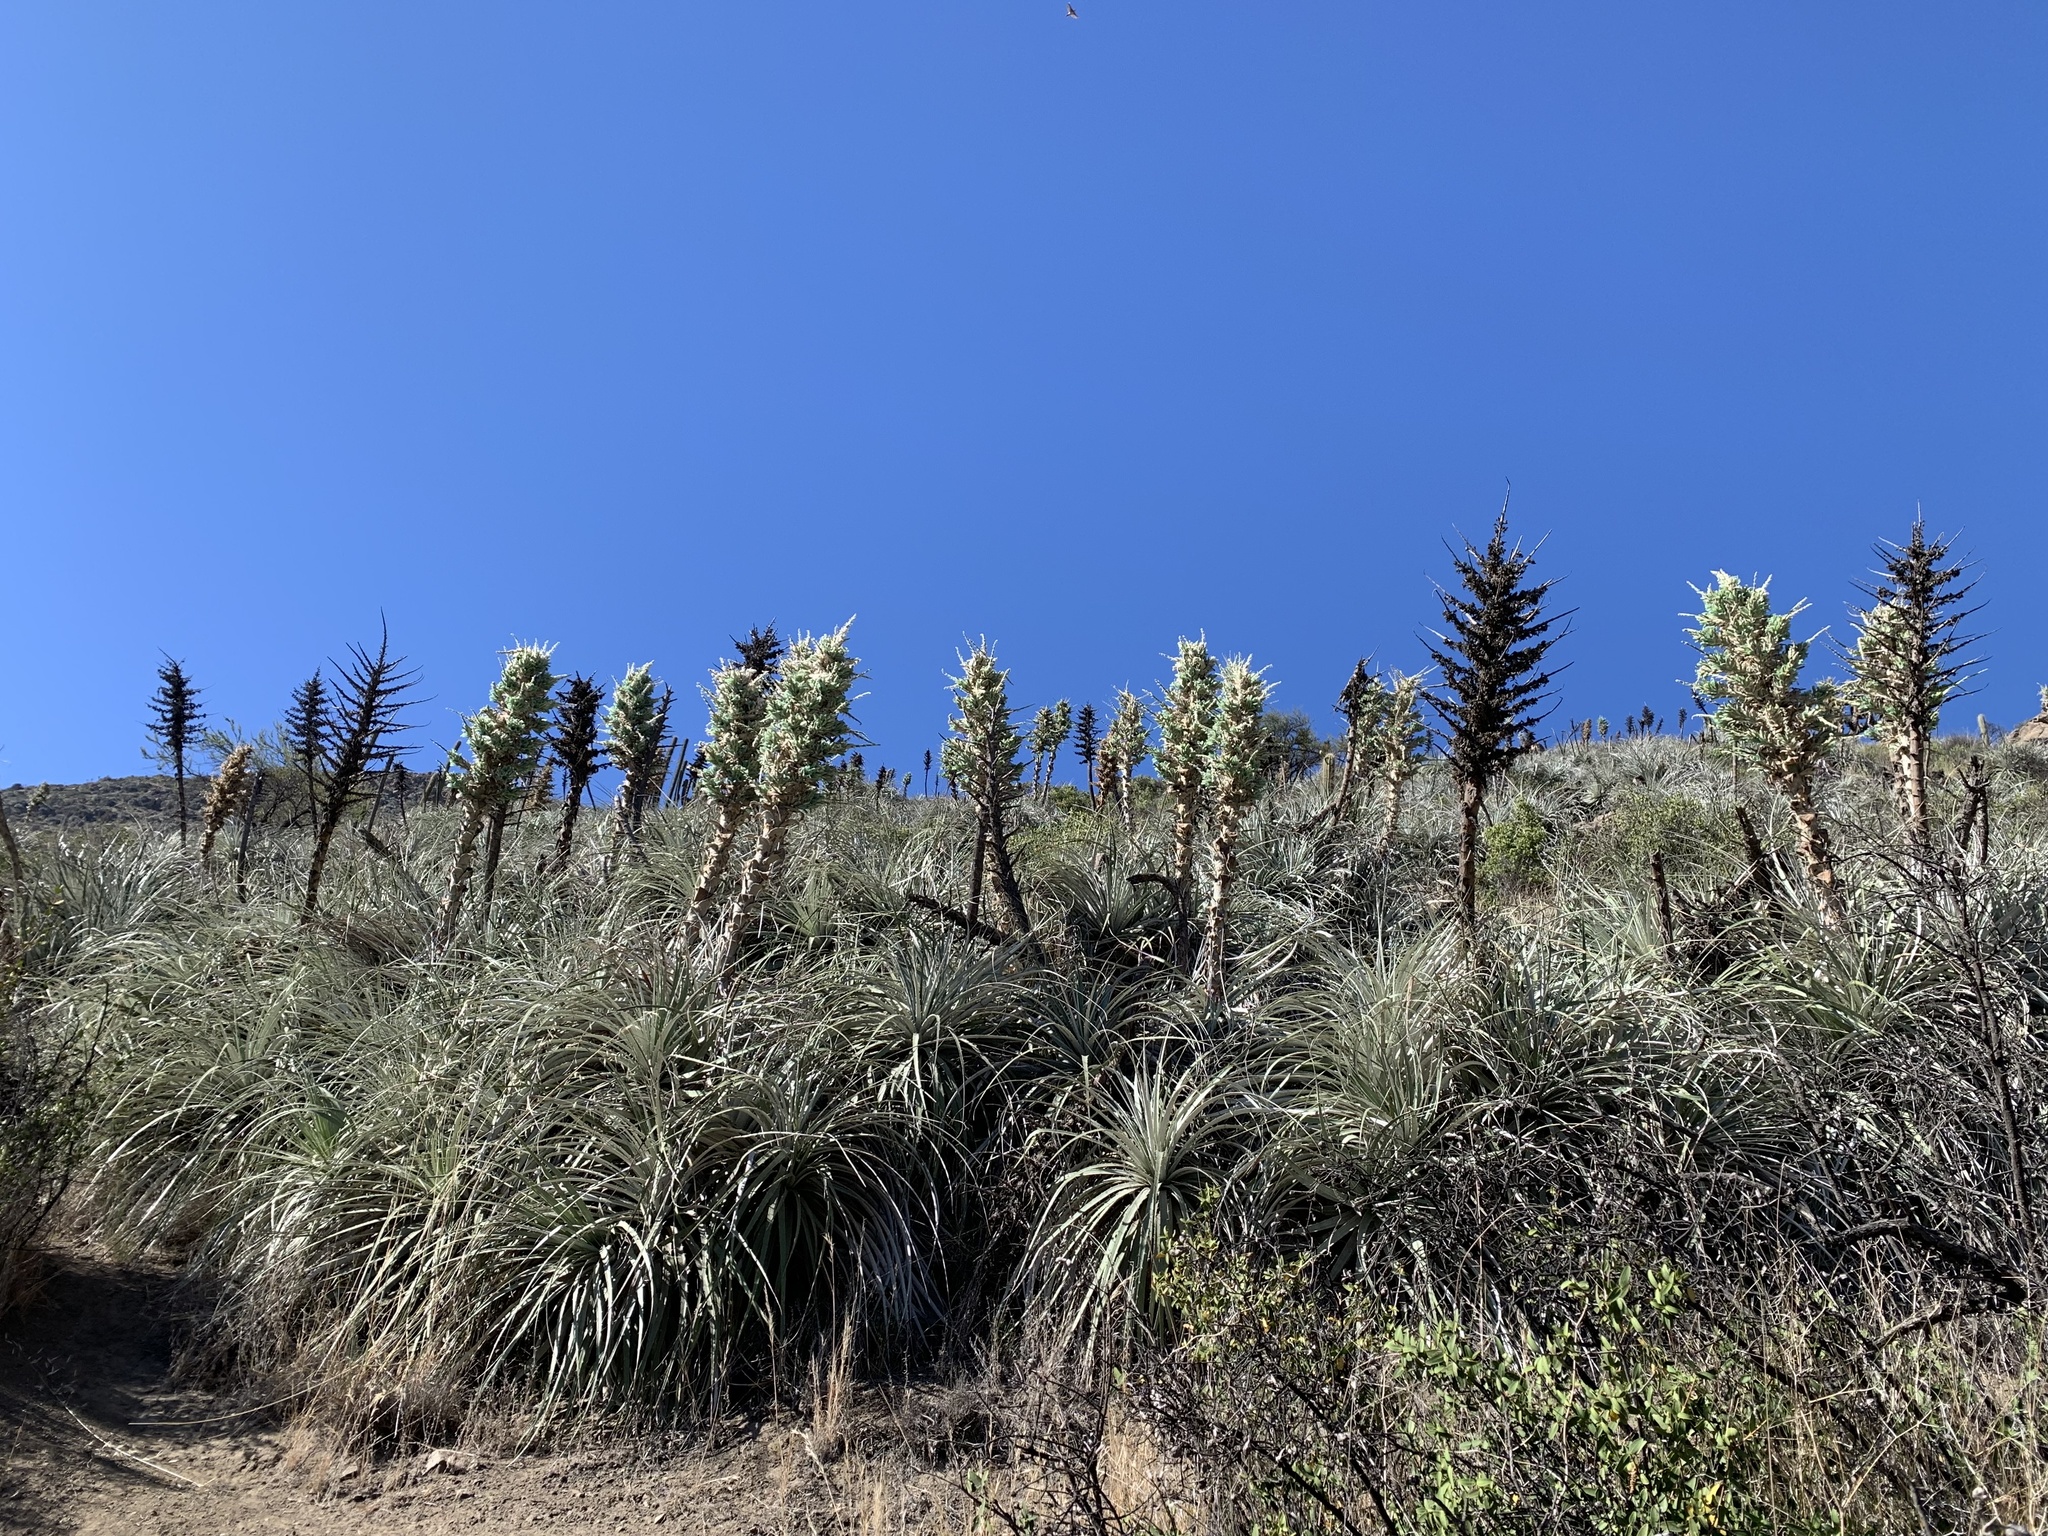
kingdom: Plantae
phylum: Tracheophyta
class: Liliopsida
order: Poales
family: Bromeliaceae
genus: Puya
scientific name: Puya alpestris
